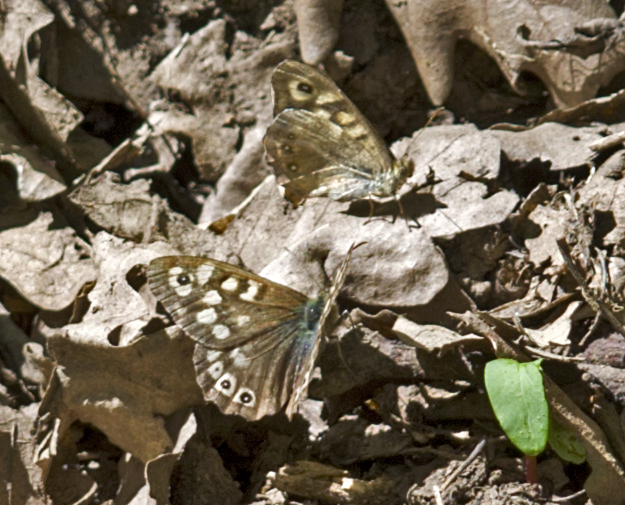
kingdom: Animalia
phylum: Arthropoda
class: Insecta
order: Lepidoptera
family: Nymphalidae
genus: Pararge
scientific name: Pararge aegeria
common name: Speckled wood
